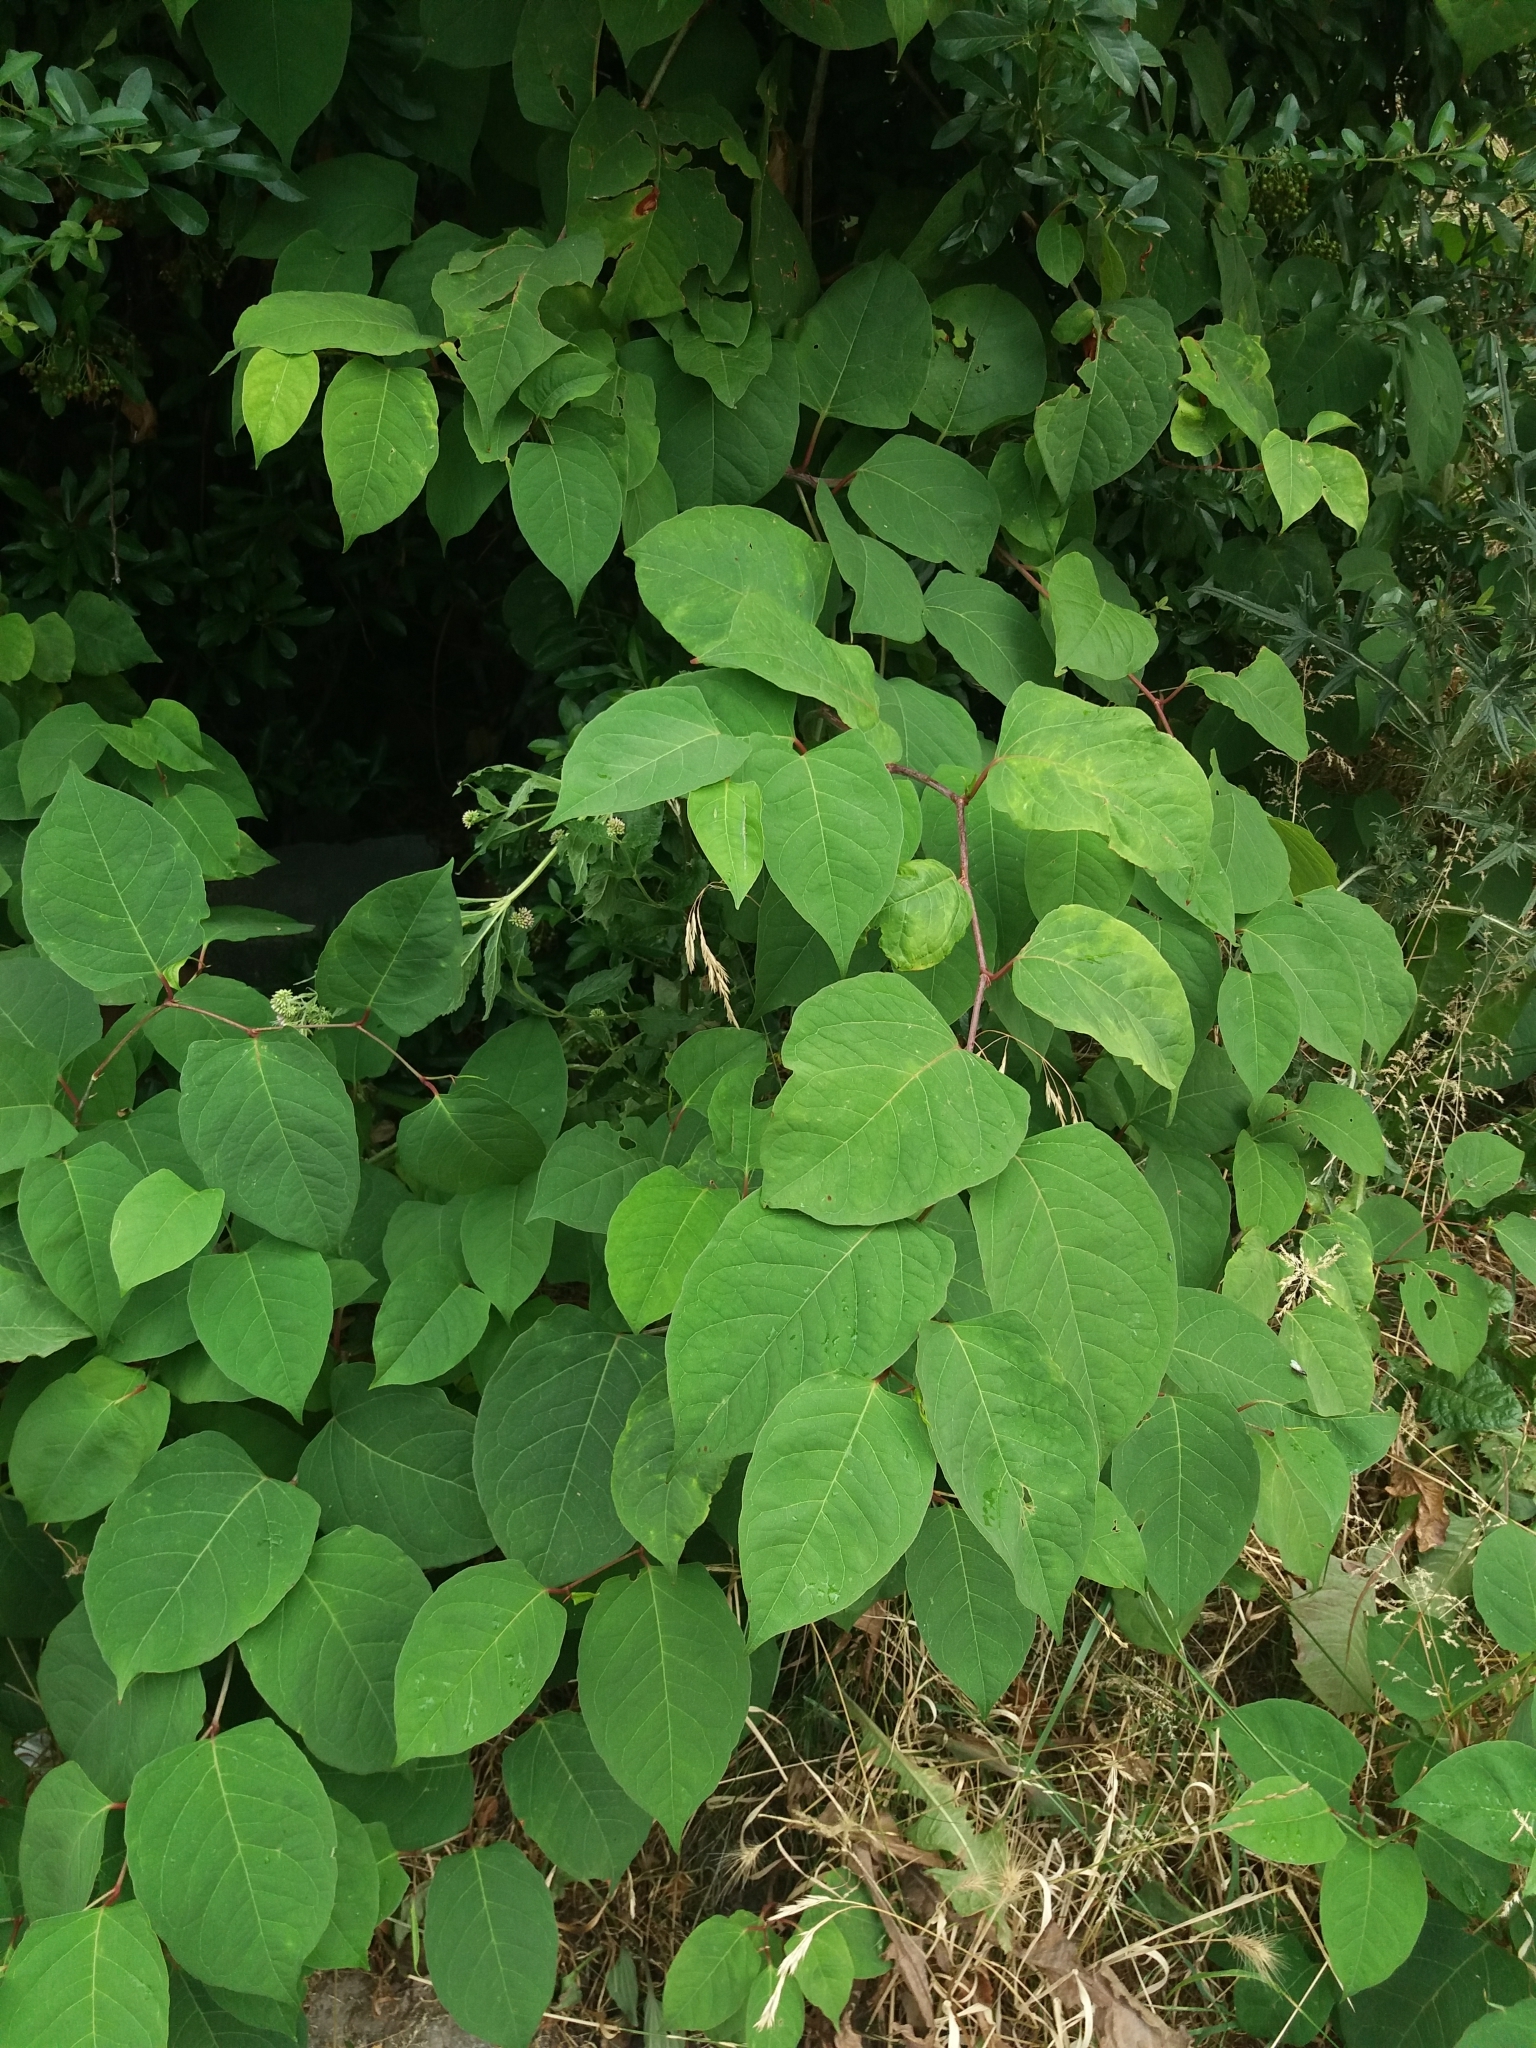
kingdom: Plantae
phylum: Tracheophyta
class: Magnoliopsida
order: Caryophyllales
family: Polygonaceae
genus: Reynoutria
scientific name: Reynoutria japonica
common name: Japanese knotweed
